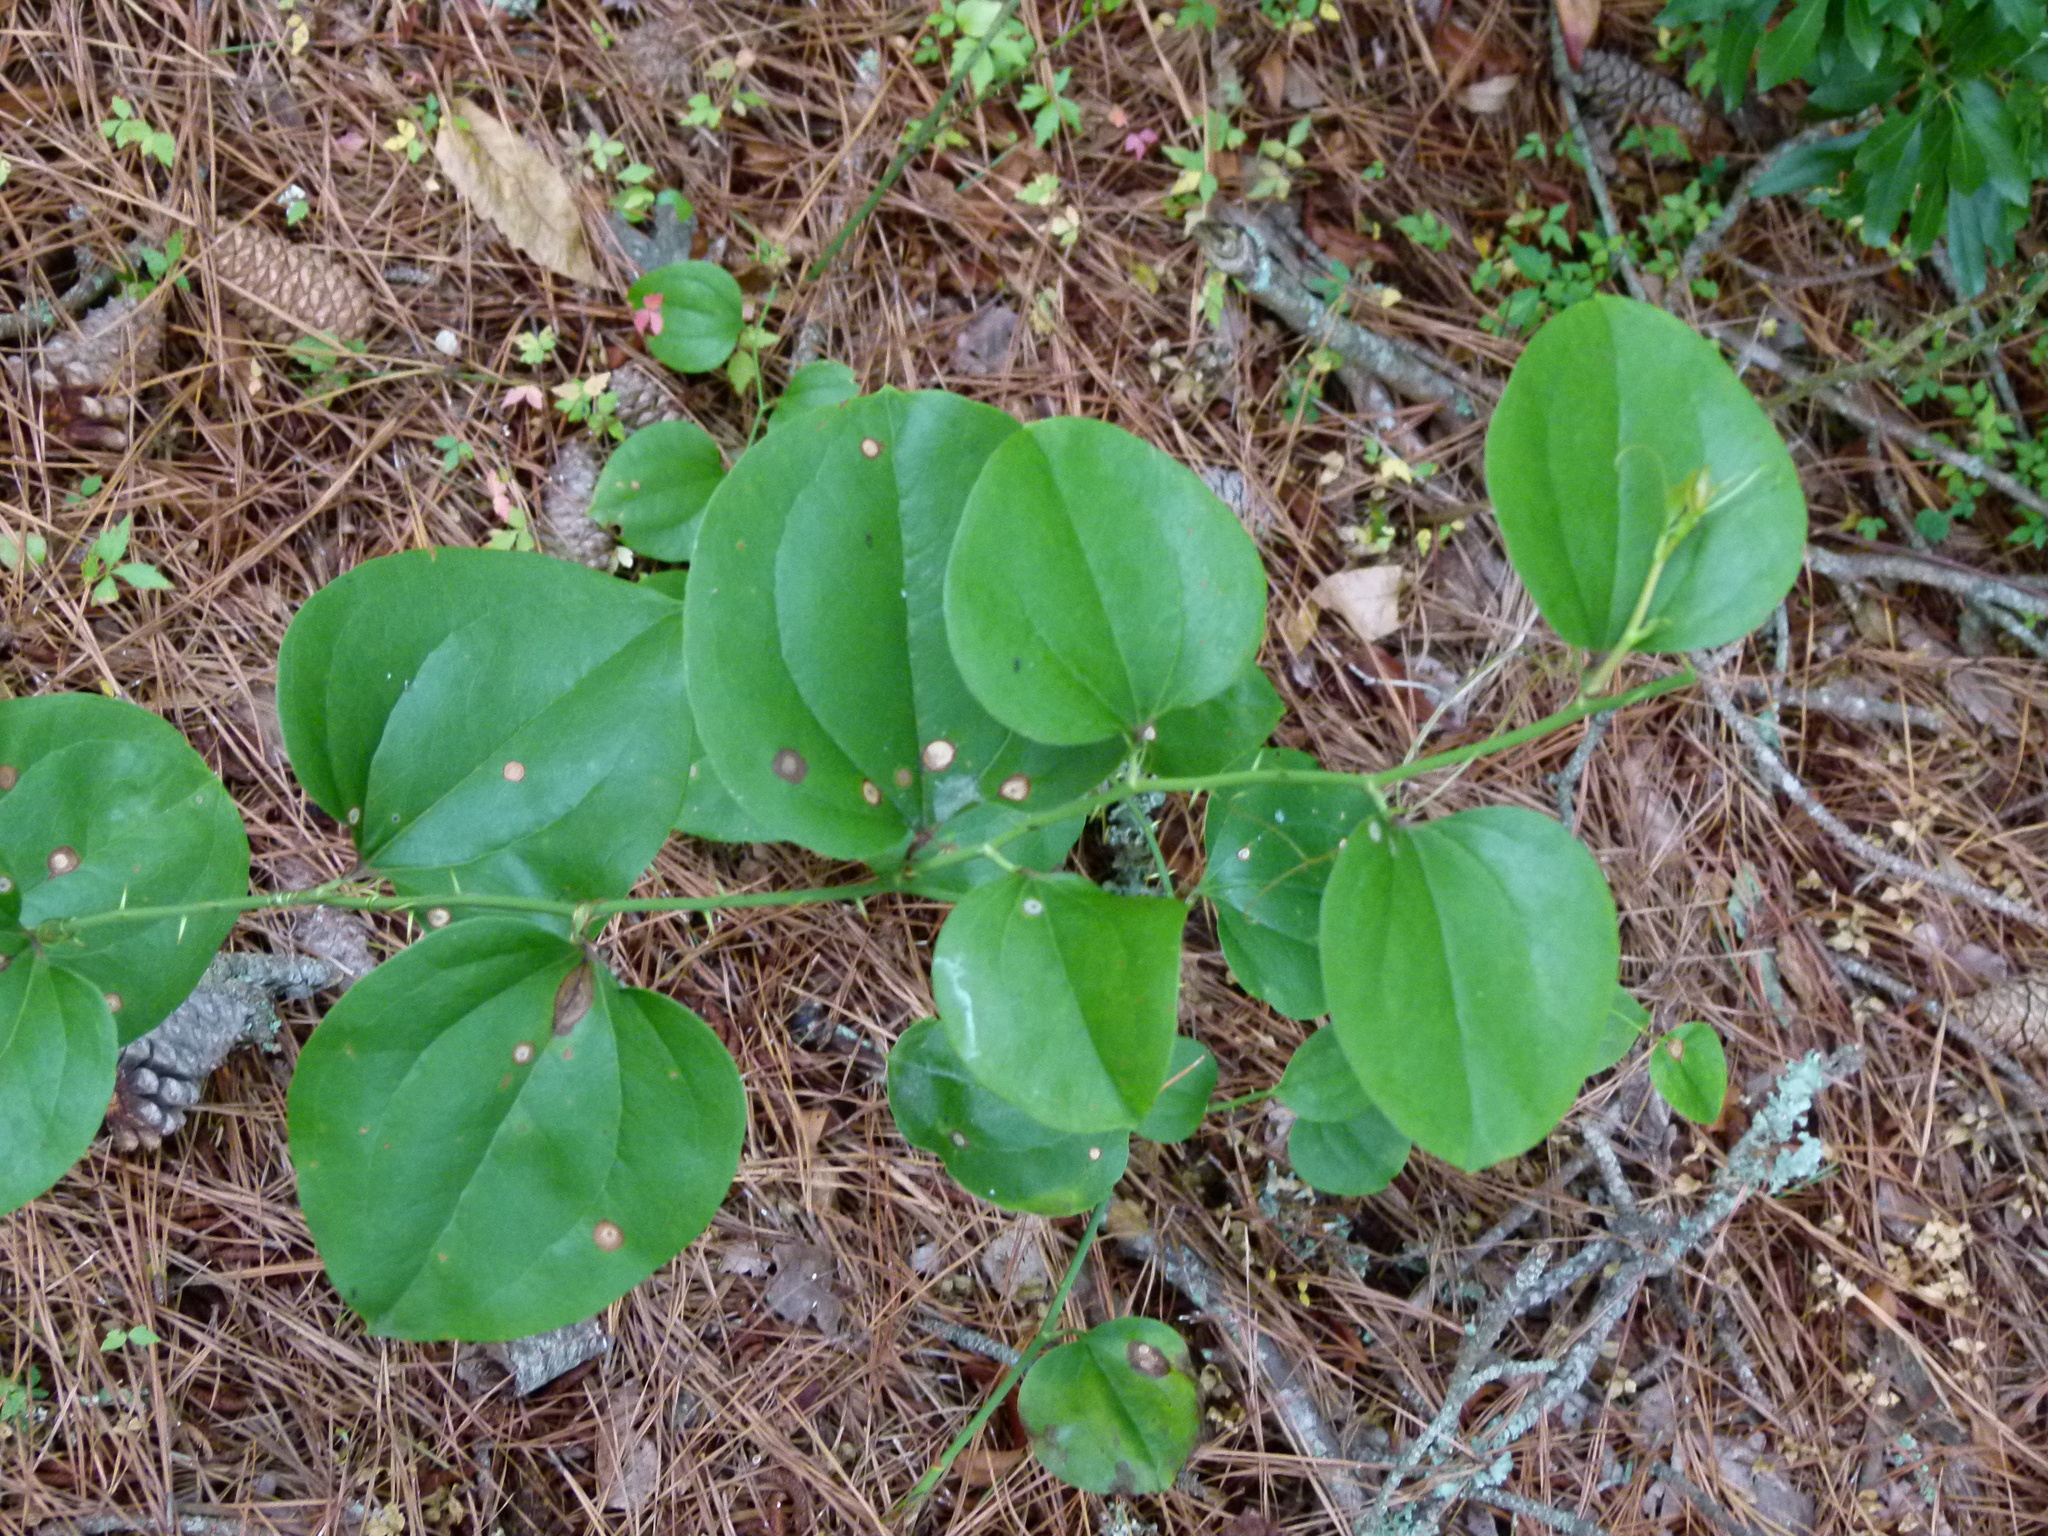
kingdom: Plantae
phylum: Tracheophyta
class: Liliopsida
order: Liliales
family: Smilacaceae
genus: Smilax
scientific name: Smilax rotundifolia
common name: Bullbriar
